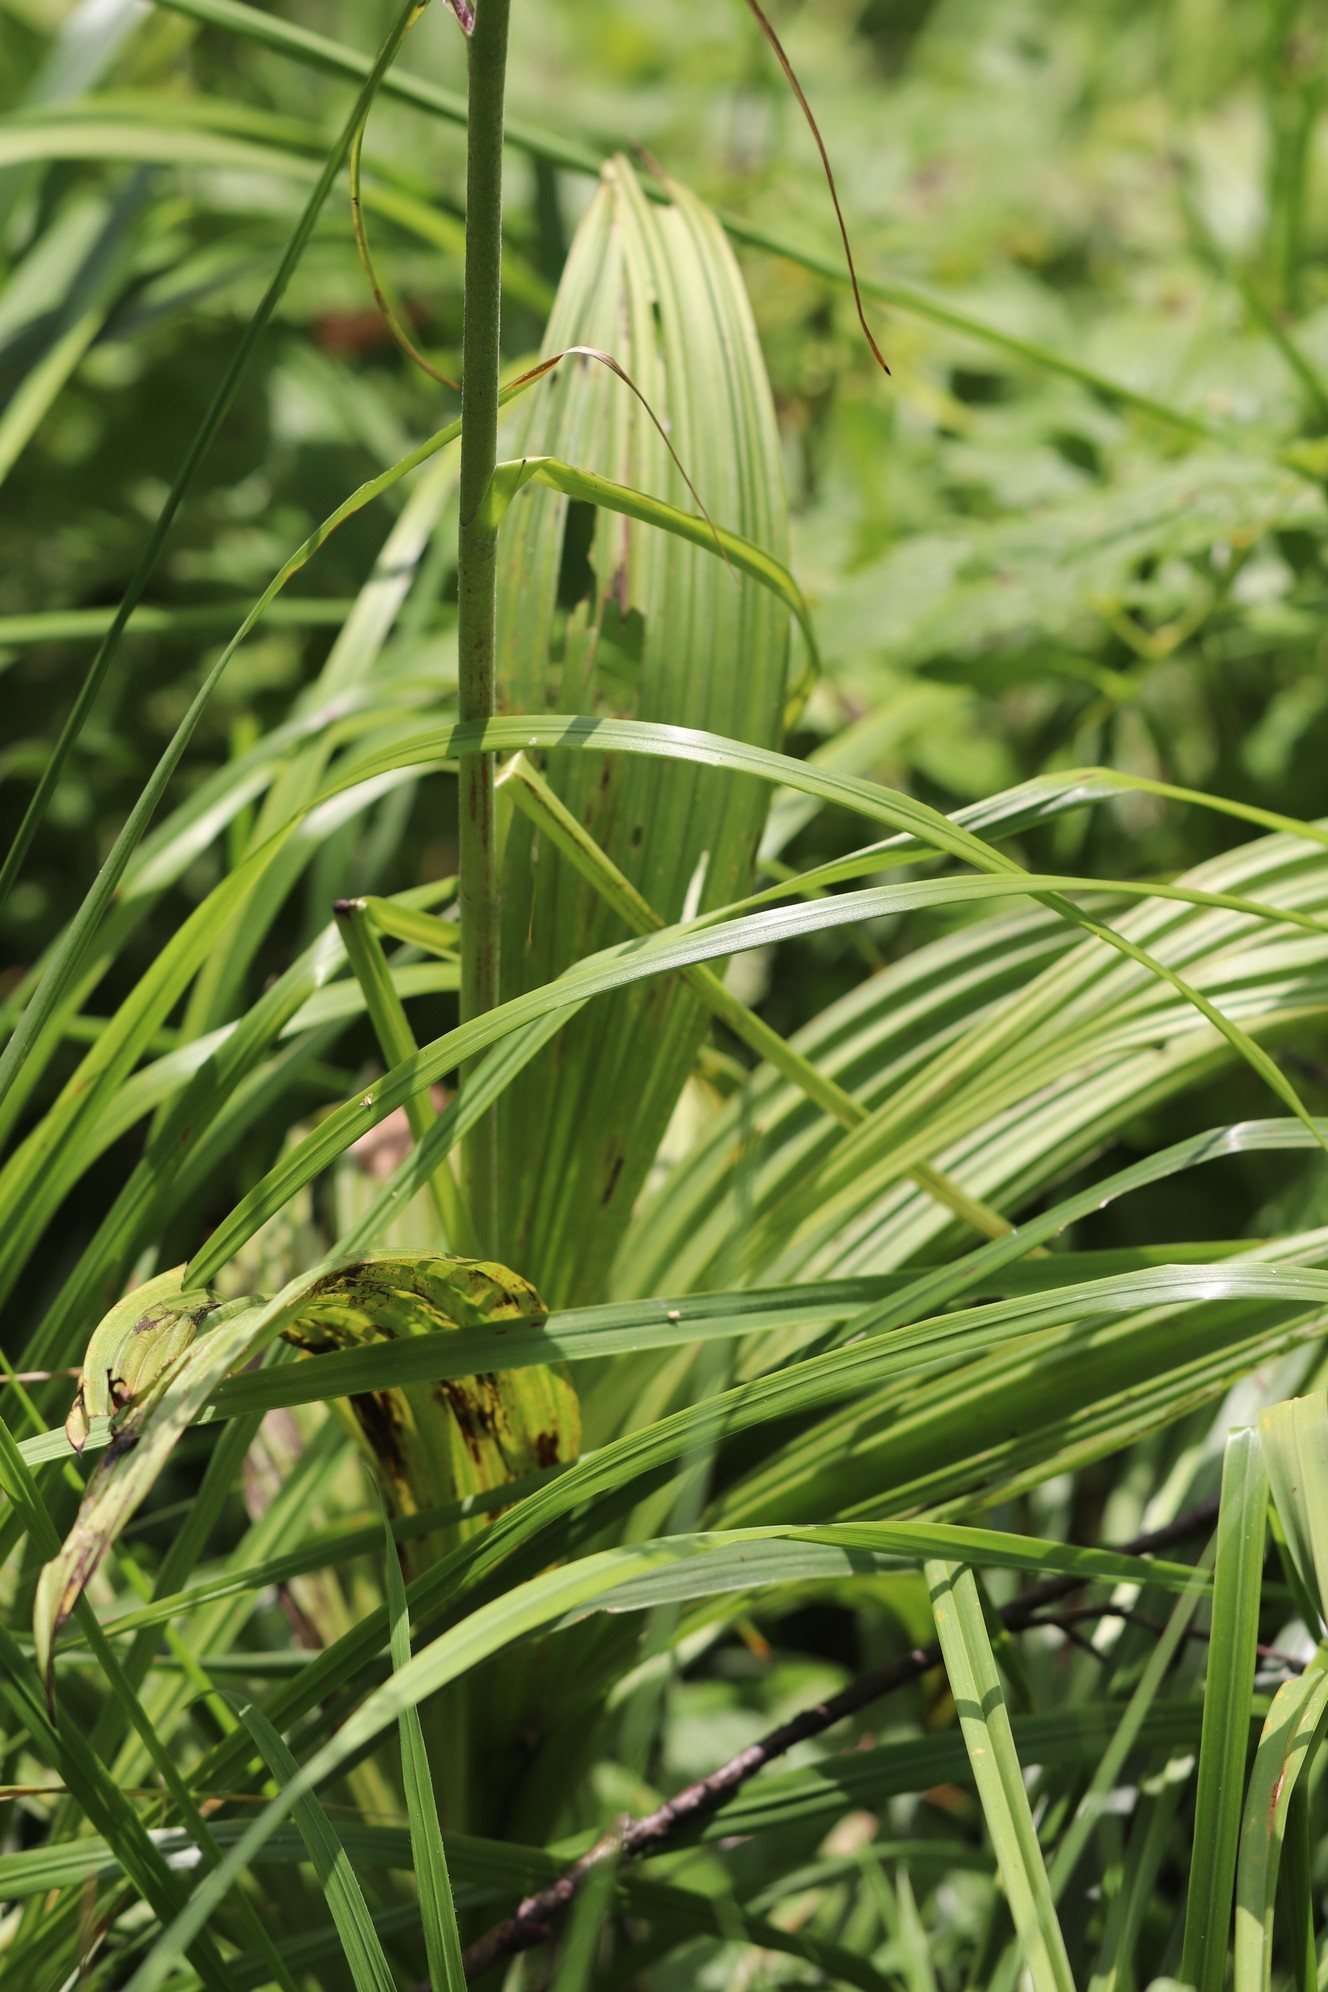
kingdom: Plantae
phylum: Tracheophyta
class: Liliopsida
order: Liliales
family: Melanthiaceae
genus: Veratrum
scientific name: Veratrum nigrum
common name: Black veratrum
